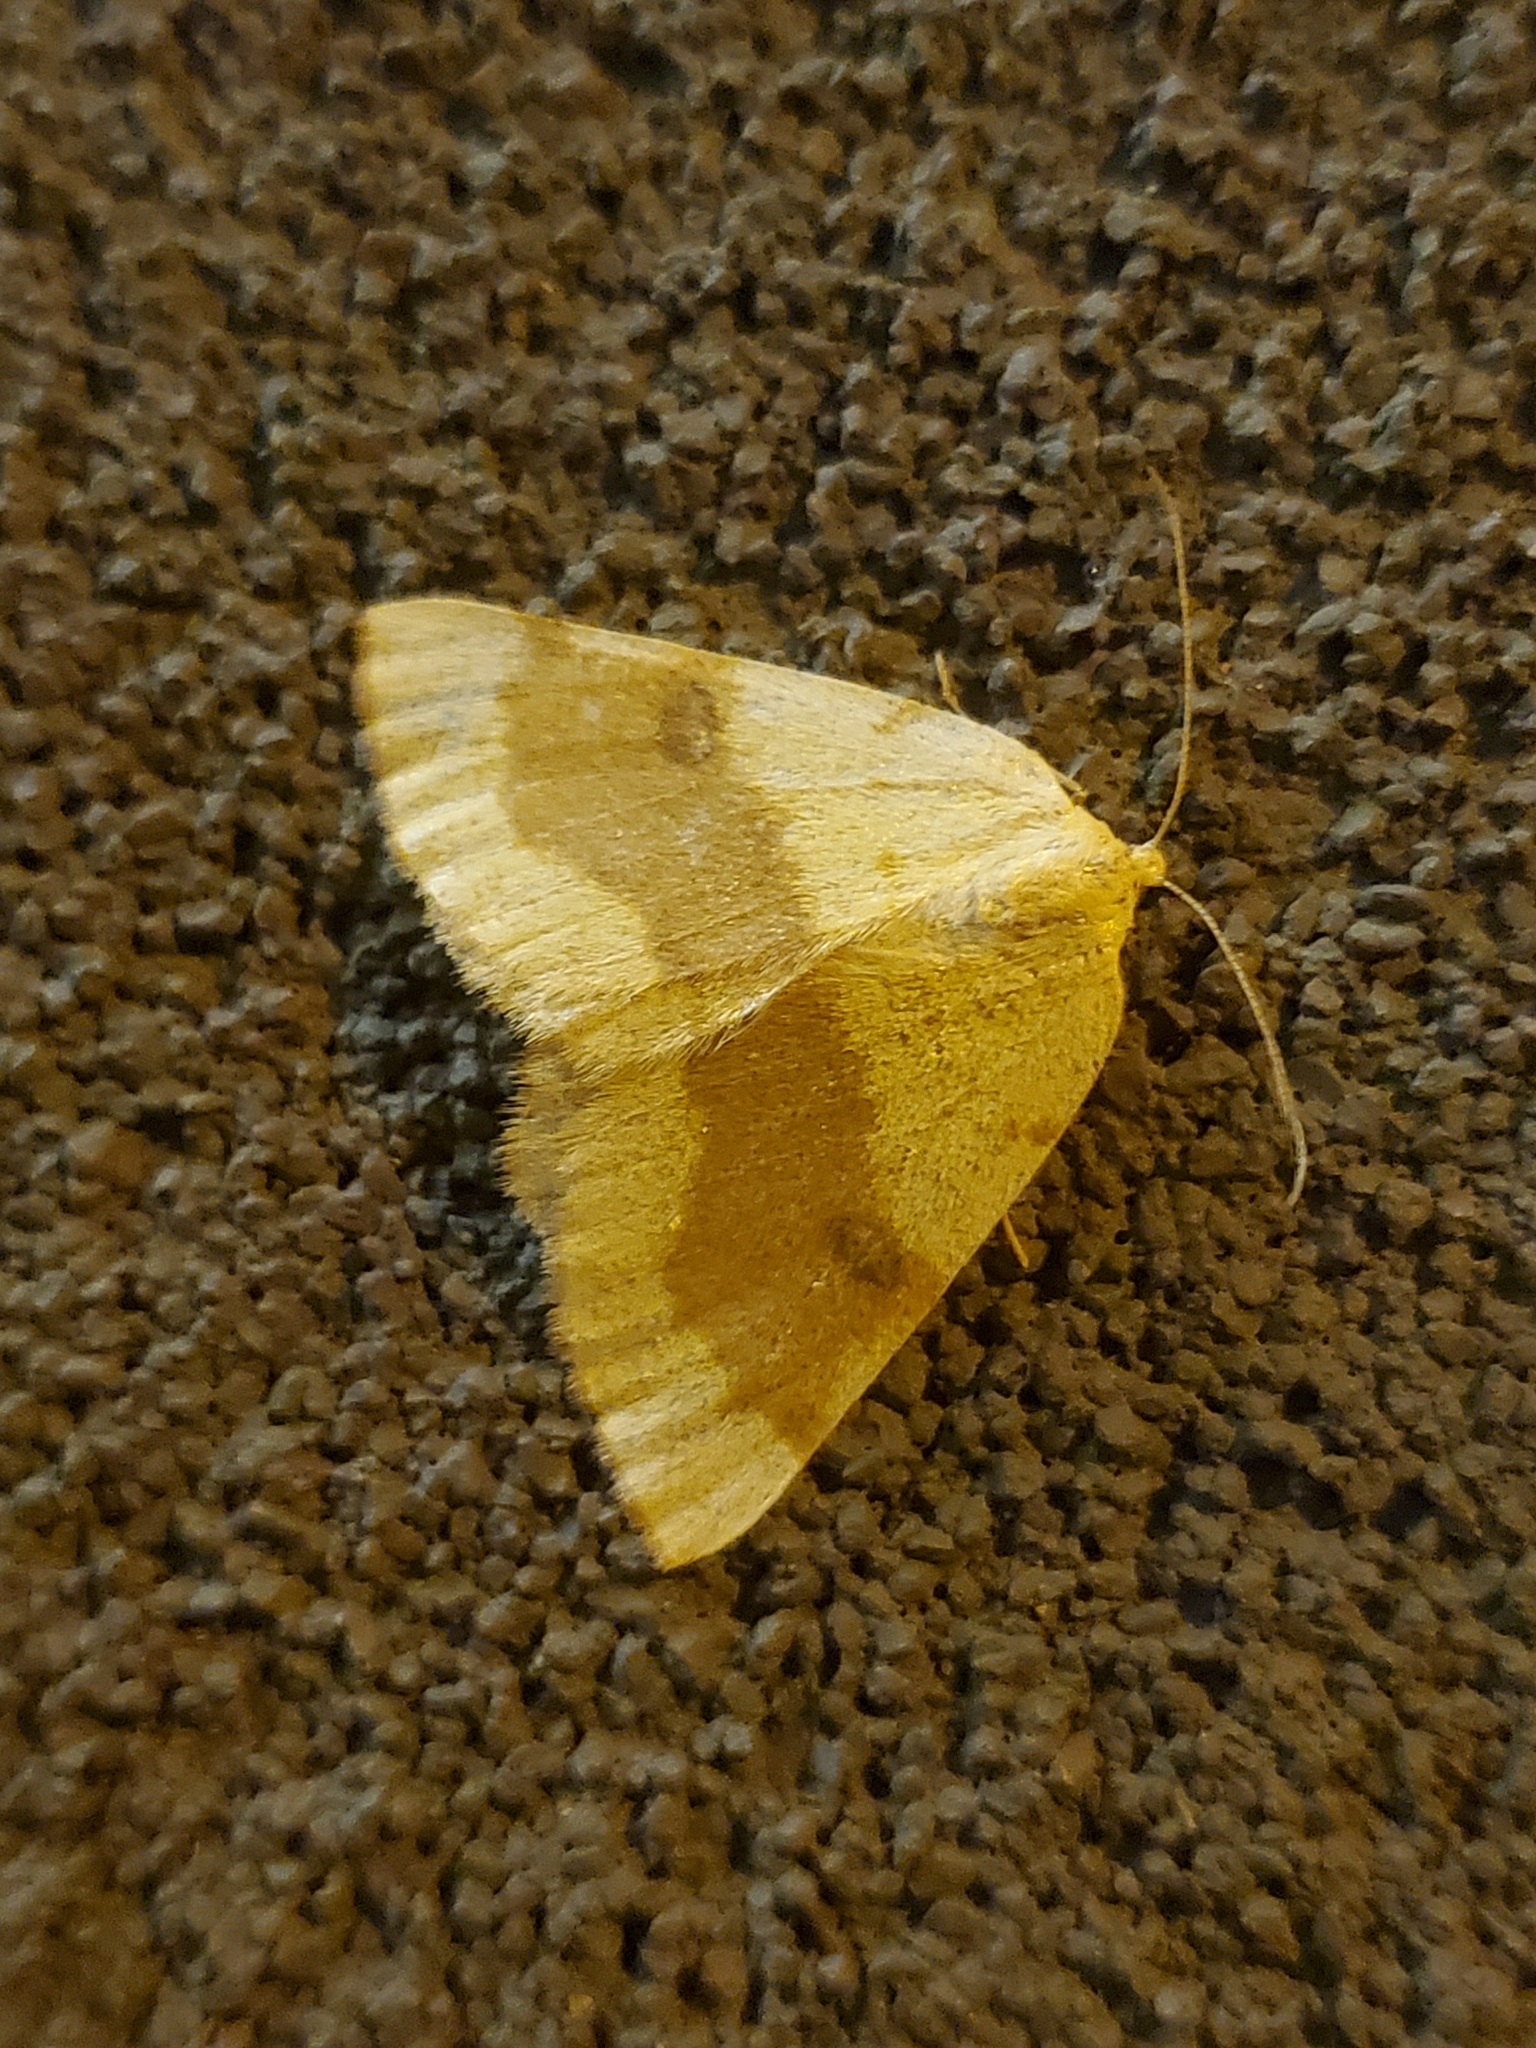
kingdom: Animalia
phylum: Arthropoda
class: Insecta
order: Lepidoptera
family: Geometridae
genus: Hesperumia
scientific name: Hesperumia sulphuraria
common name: Sulphur moth
